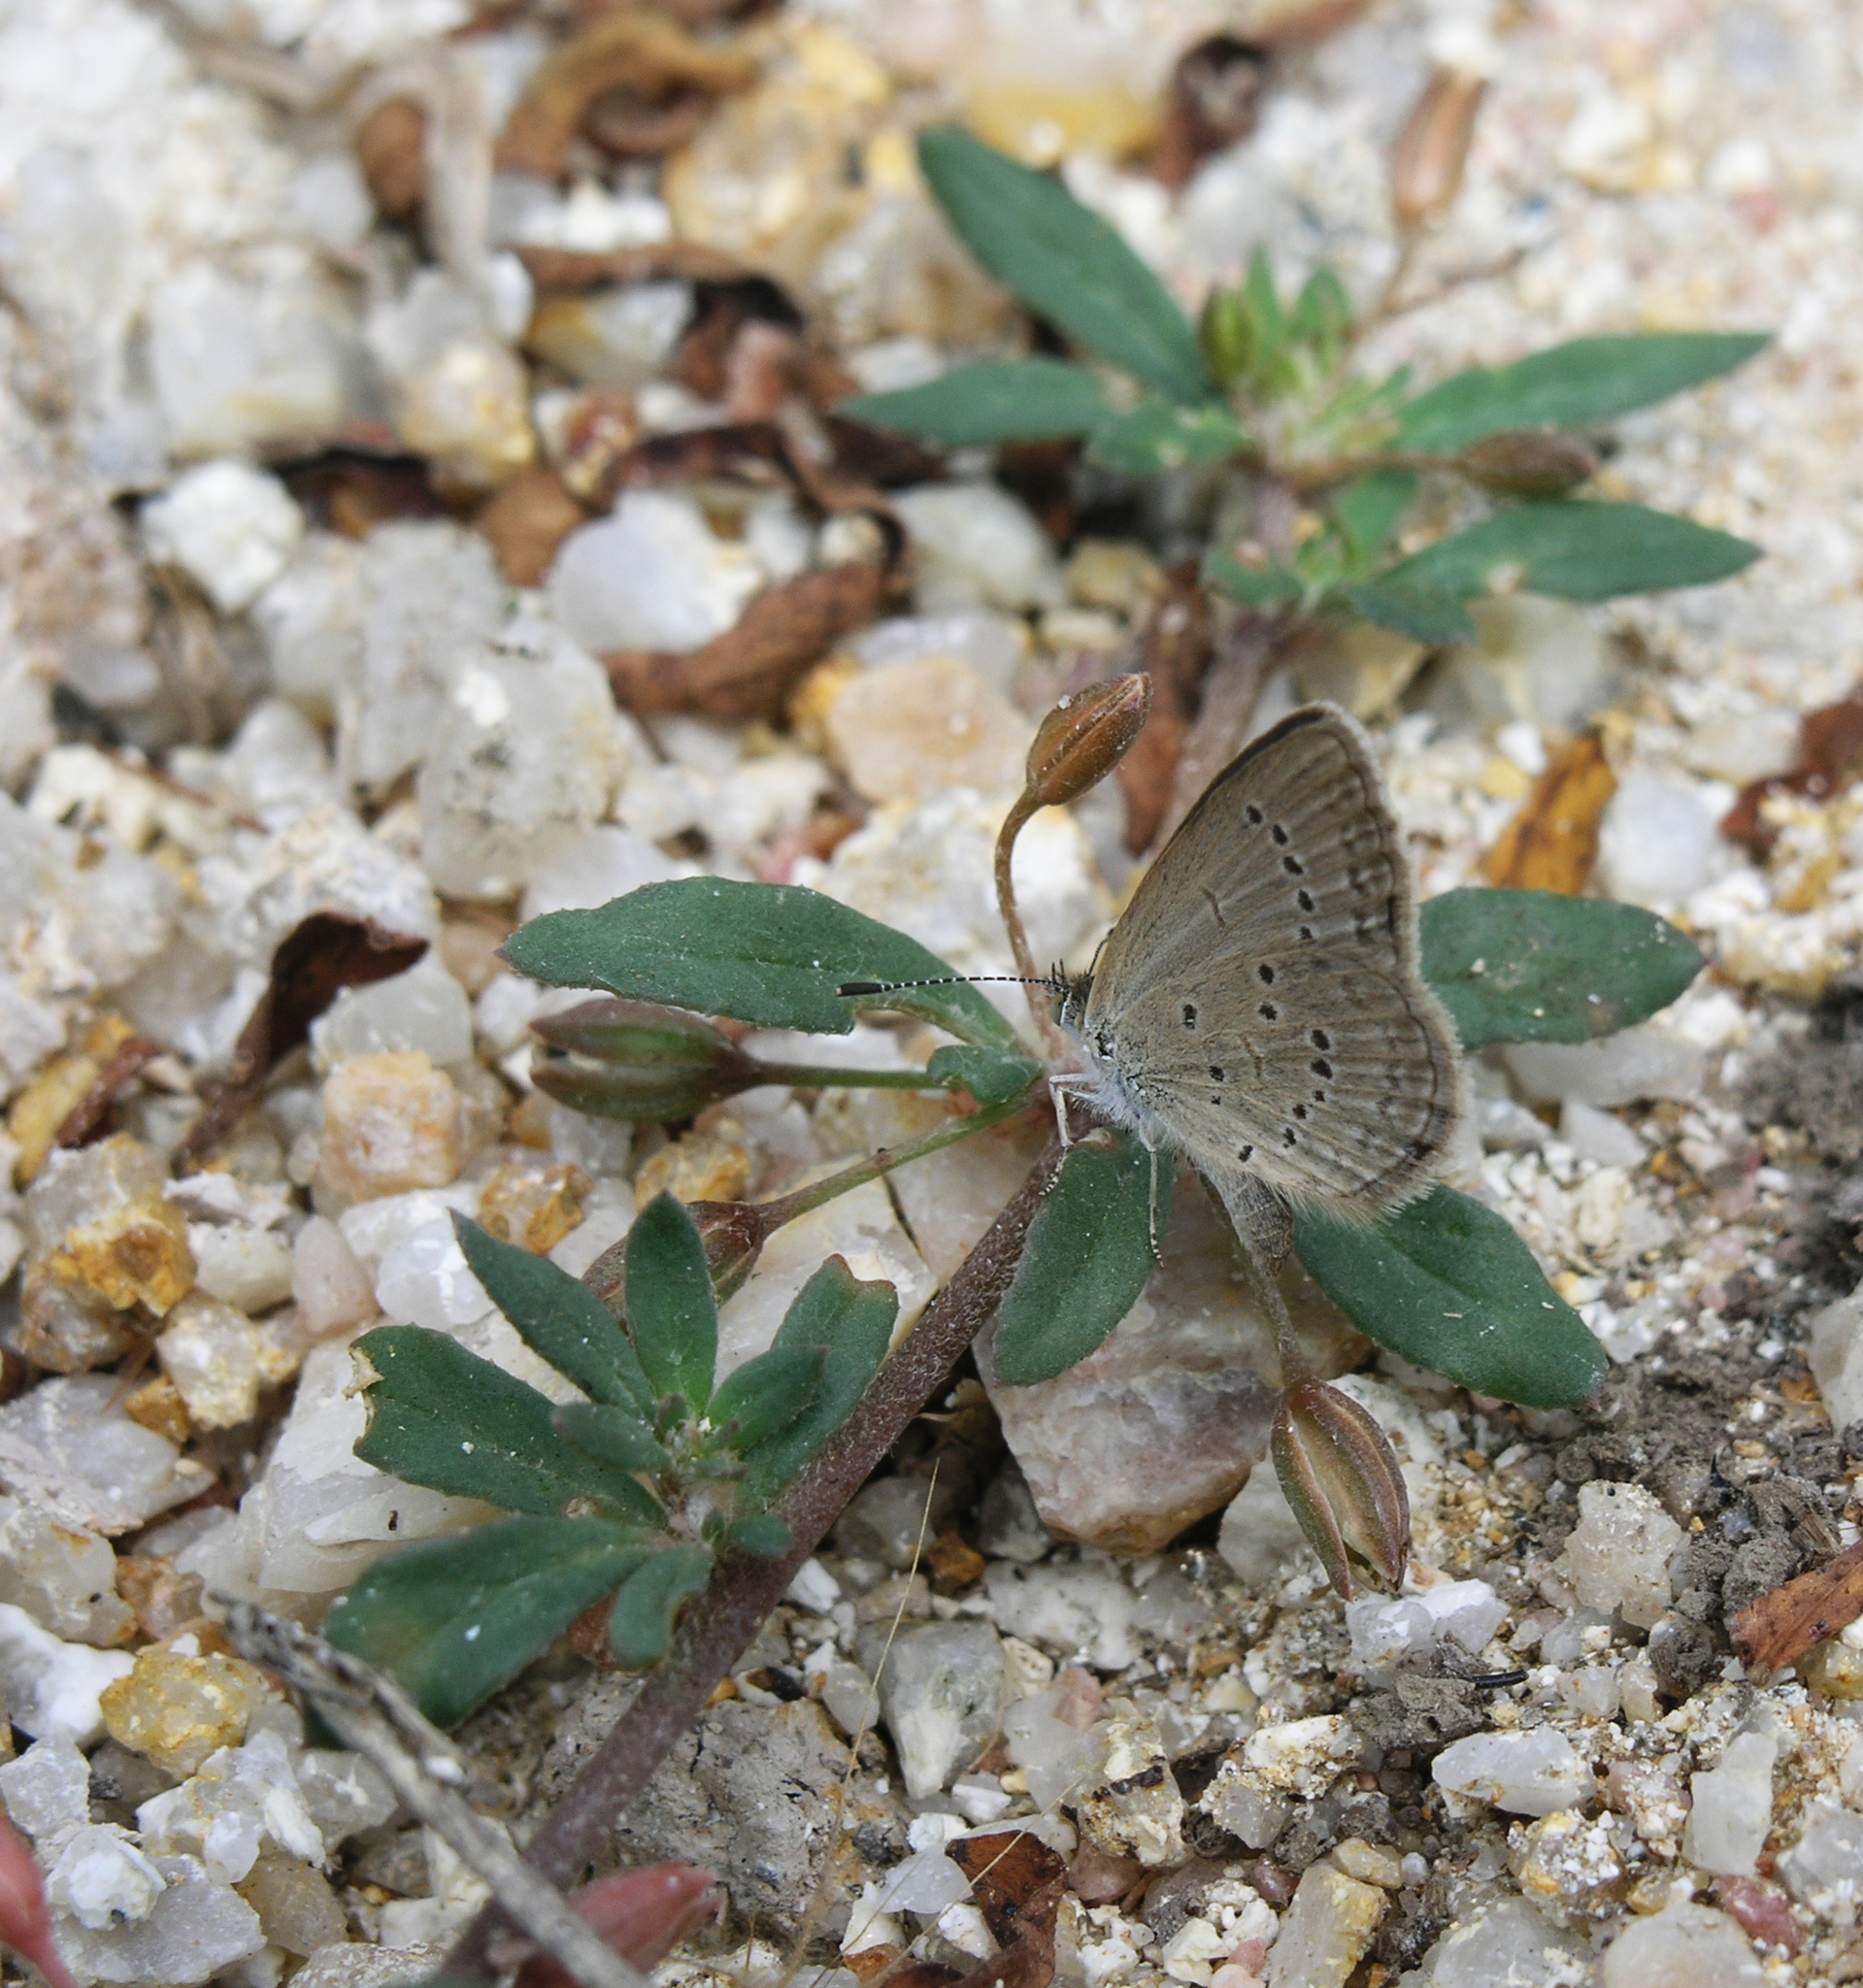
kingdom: Animalia
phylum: Arthropoda
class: Insecta
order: Lepidoptera
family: Lycaenidae
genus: Zizina
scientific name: Zizina otis
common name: Lesser grass blue
